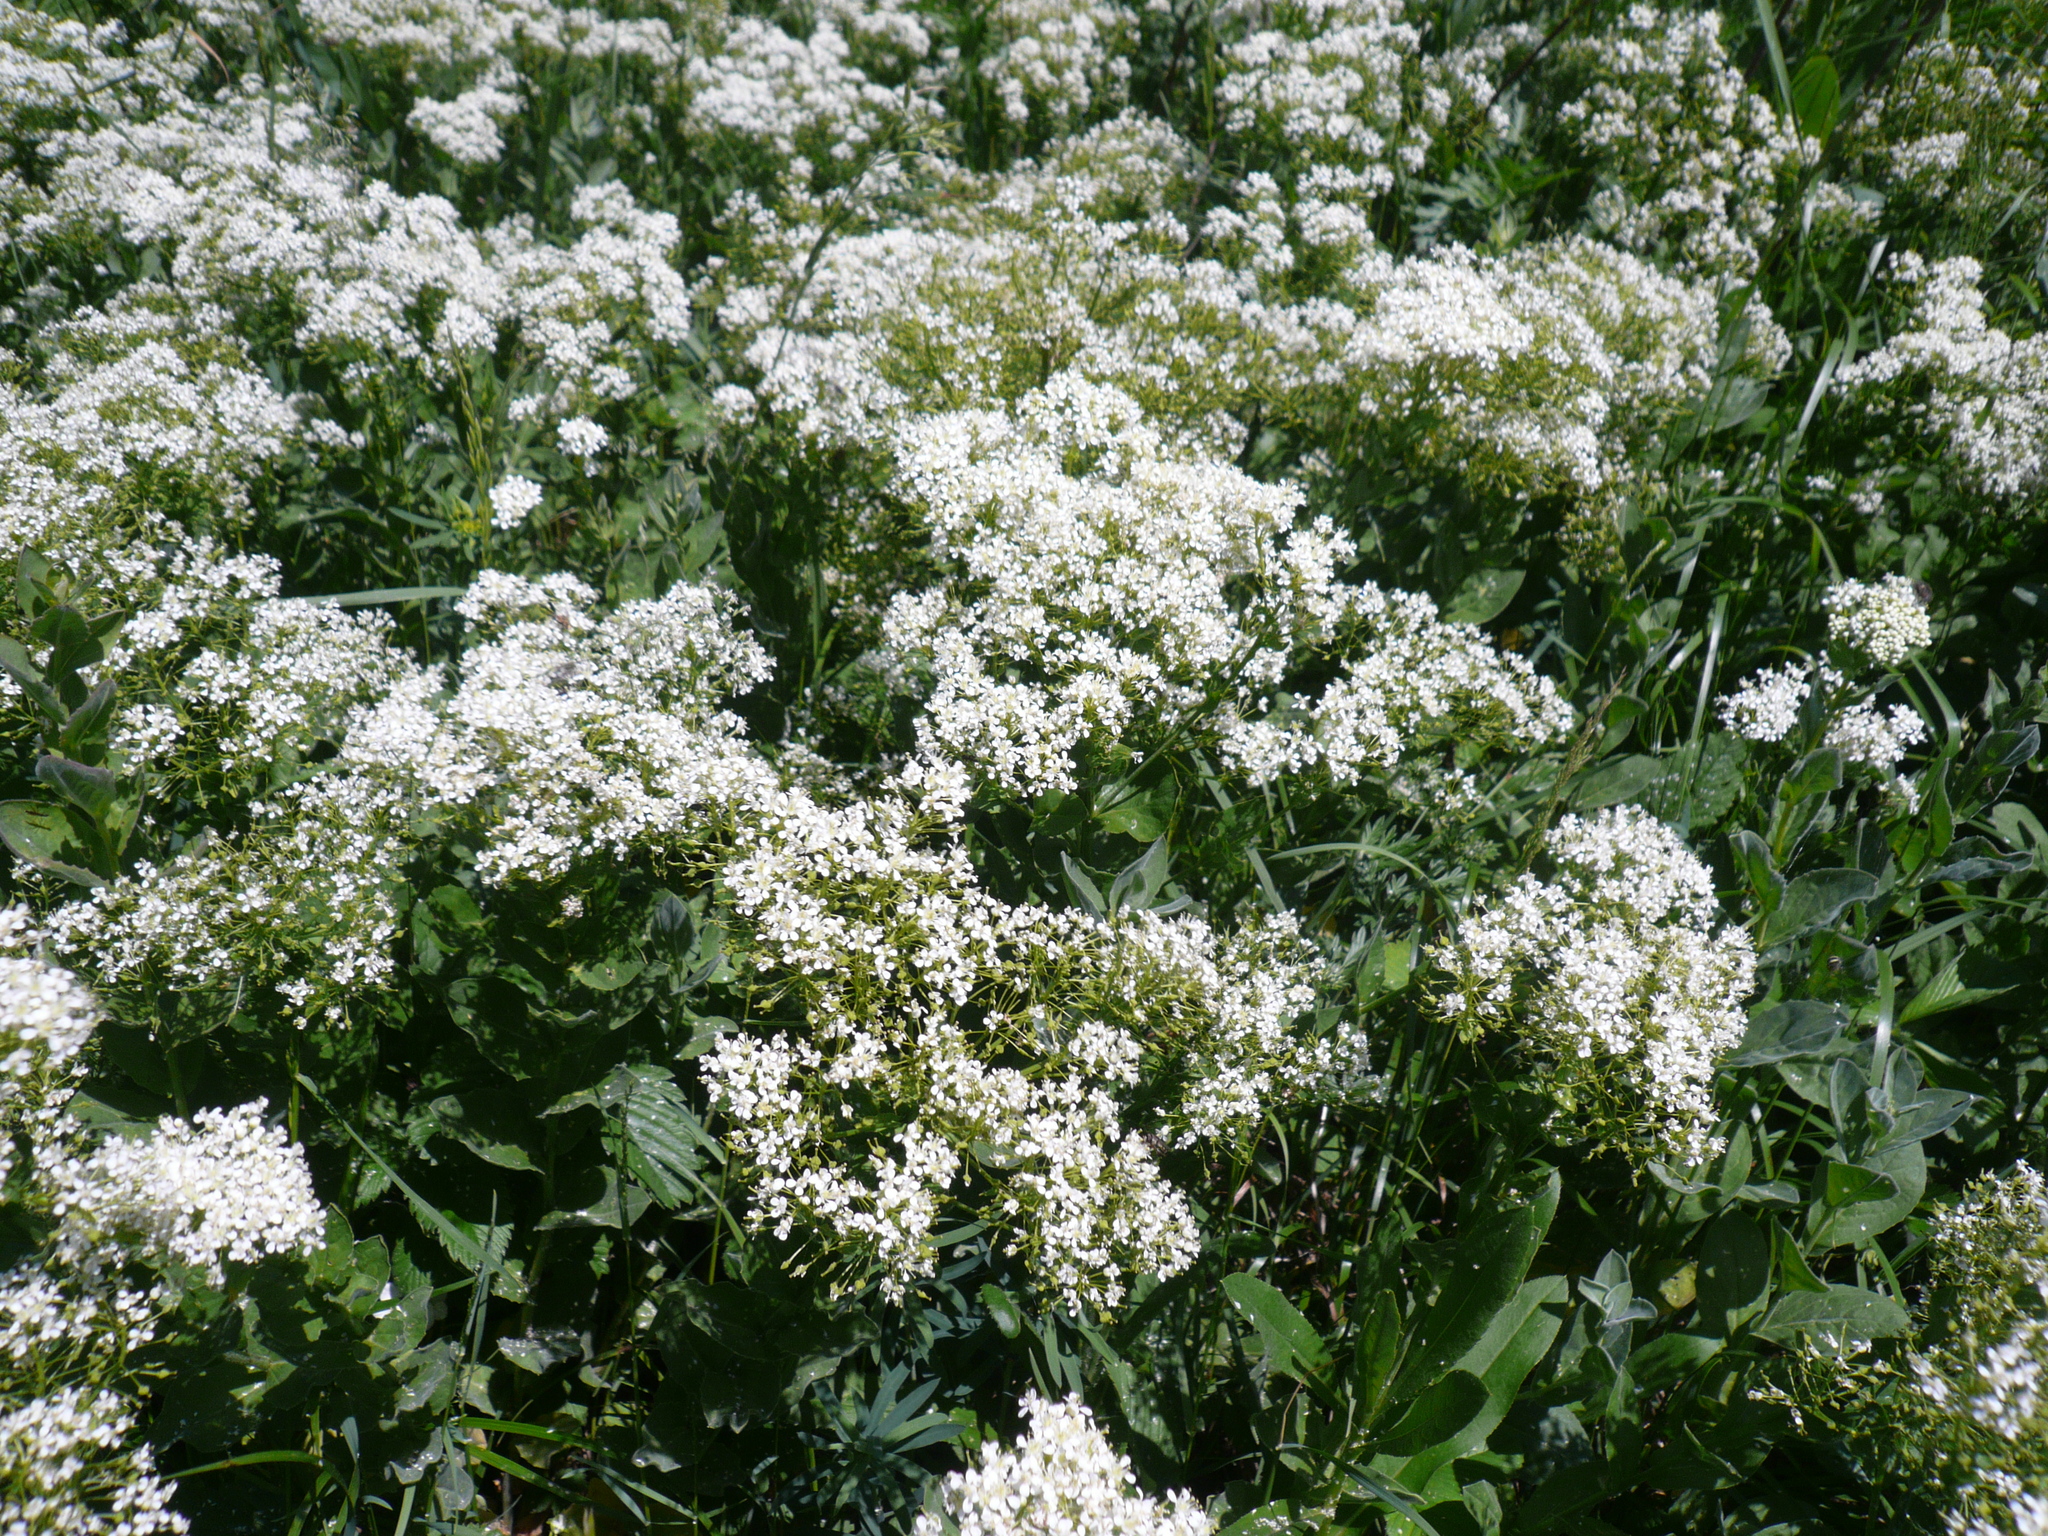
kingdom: Plantae
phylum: Tracheophyta
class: Magnoliopsida
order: Brassicales
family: Brassicaceae
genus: Lepidium
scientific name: Lepidium draba
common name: Hoary cress
